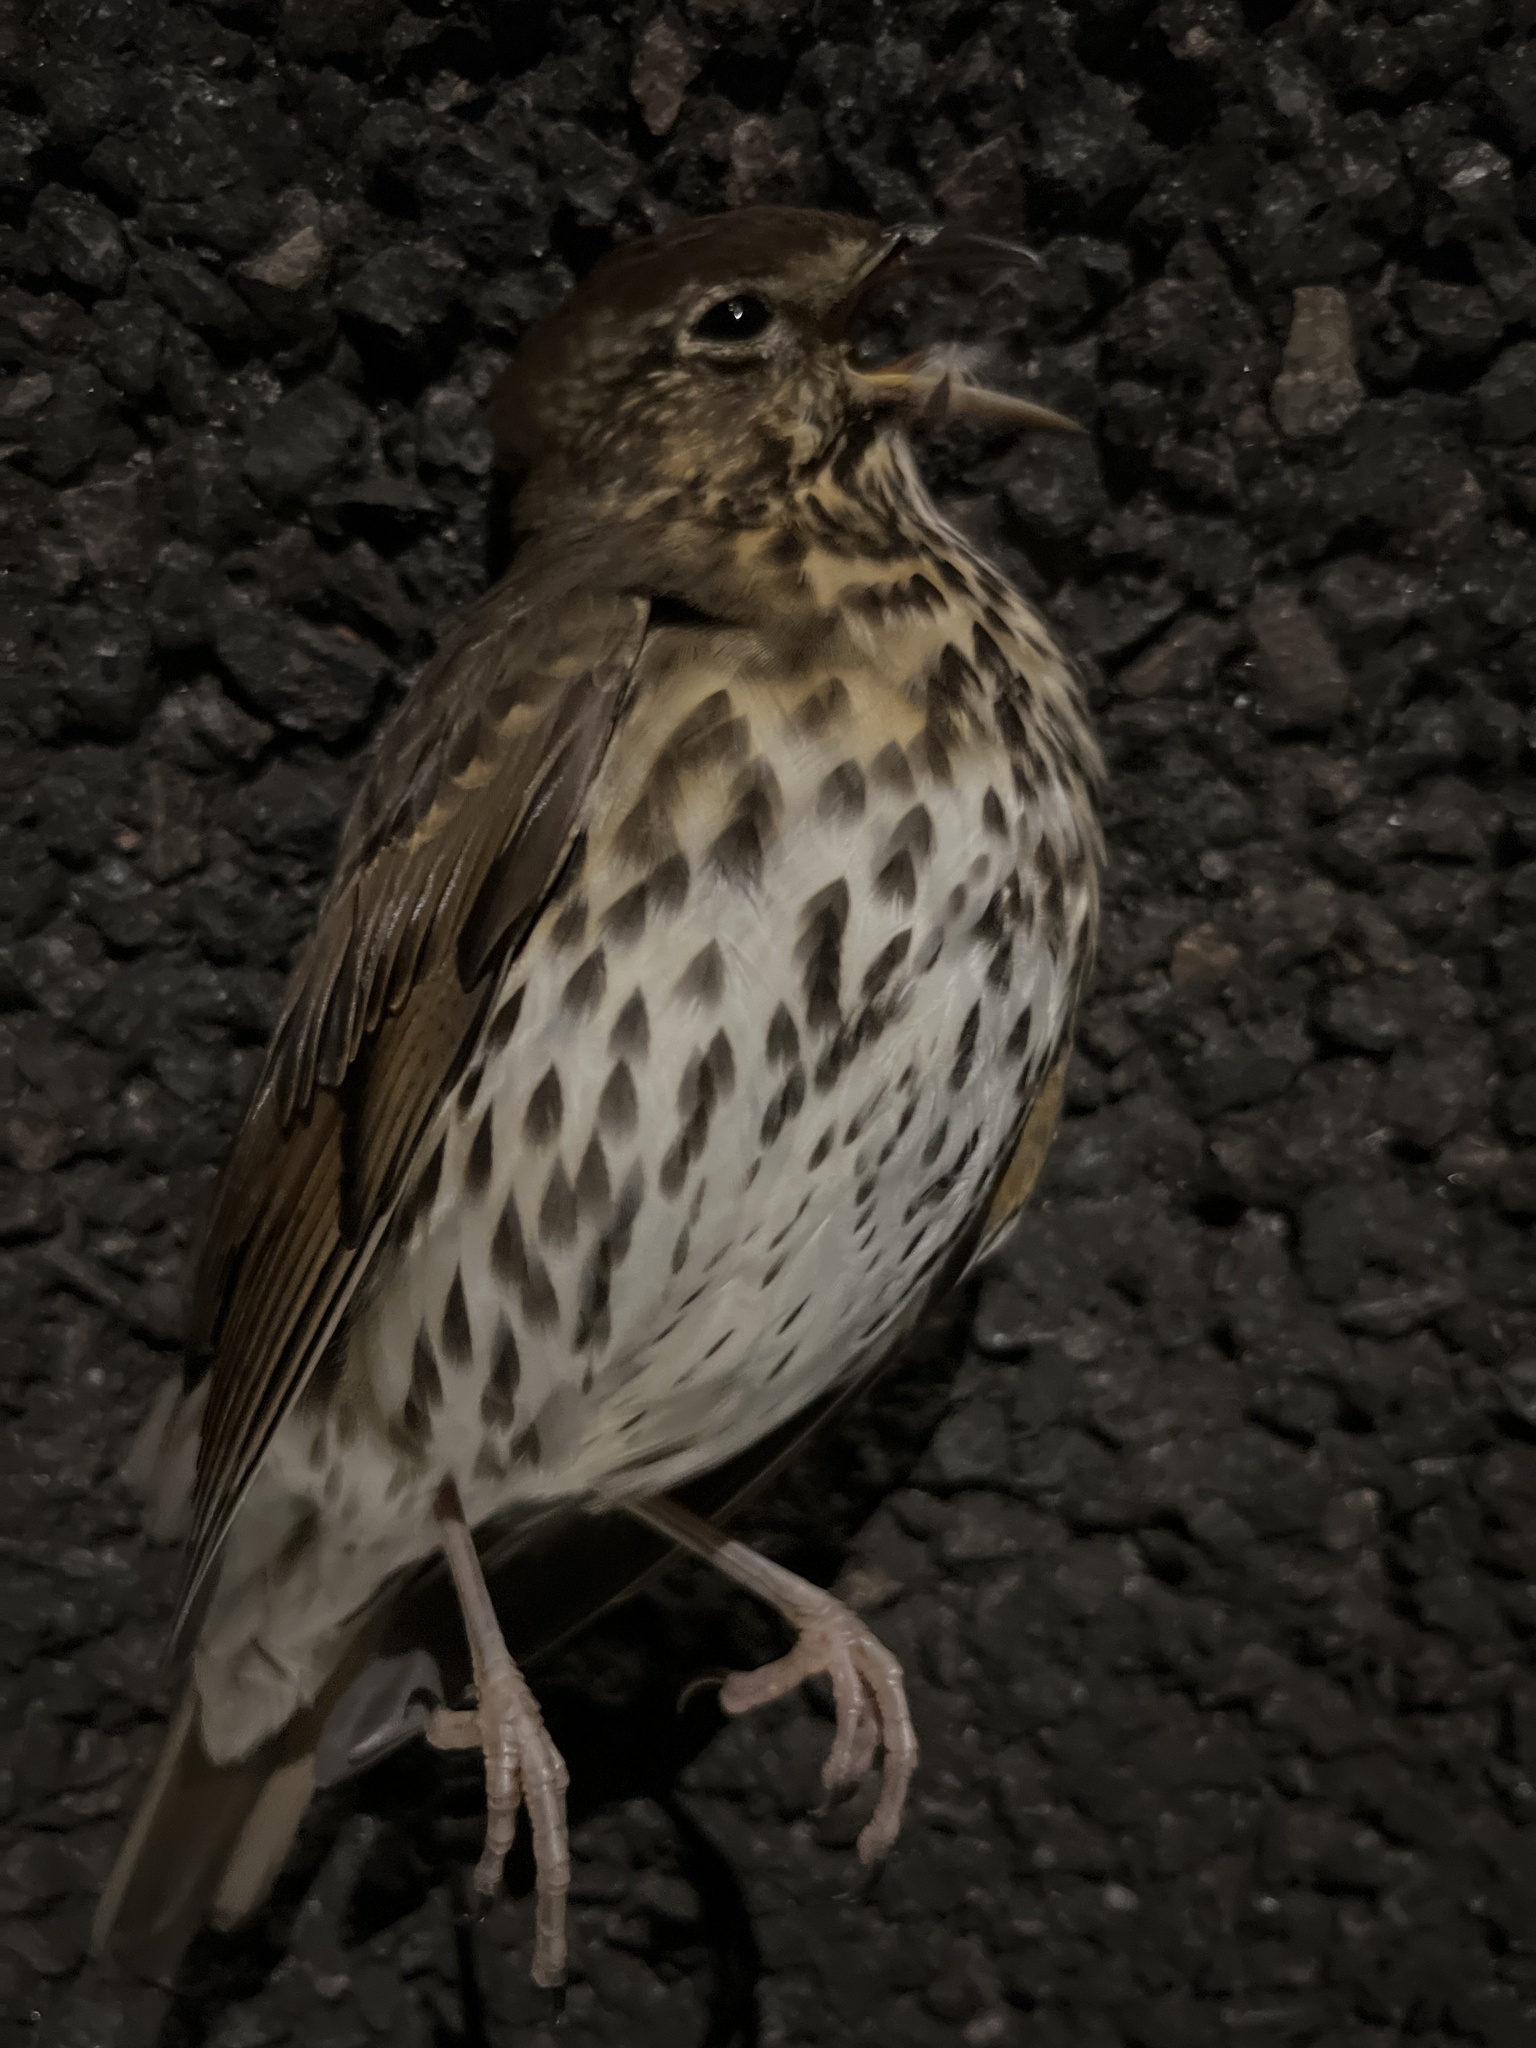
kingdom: Animalia
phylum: Chordata
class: Aves
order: Passeriformes
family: Turdidae
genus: Turdus
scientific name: Turdus philomelos
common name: Song thrush
